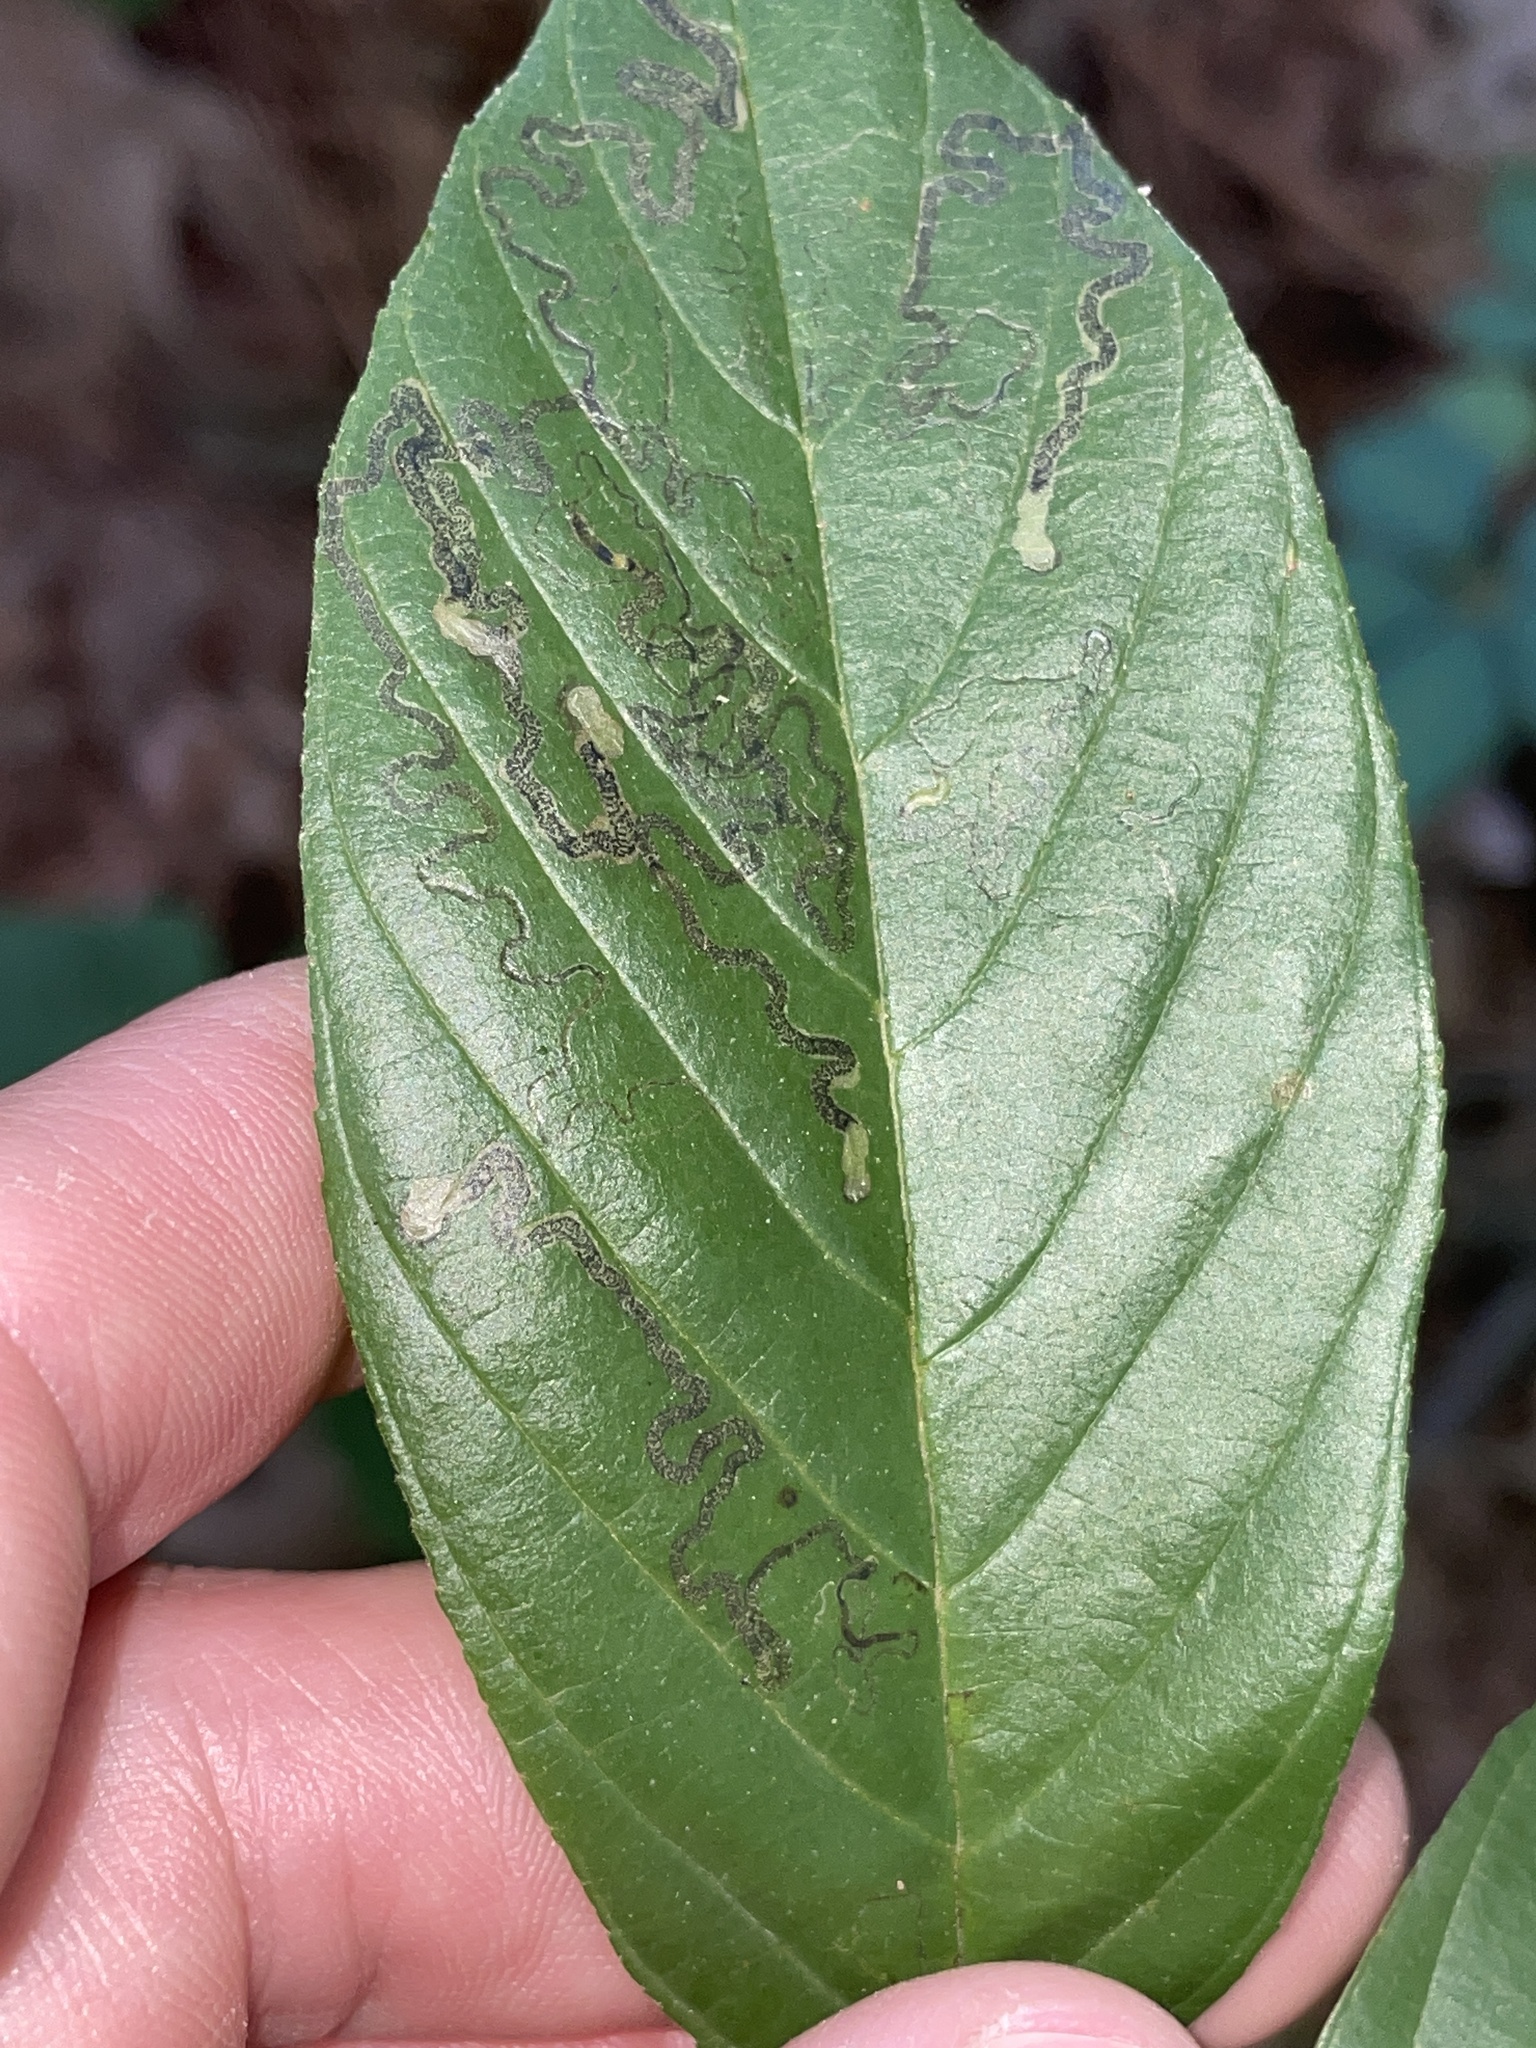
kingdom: Animalia
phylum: Arthropoda
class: Insecta
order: Lepidoptera
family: Nepticulidae
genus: Stigmella
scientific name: Stigmella rhamnicola
